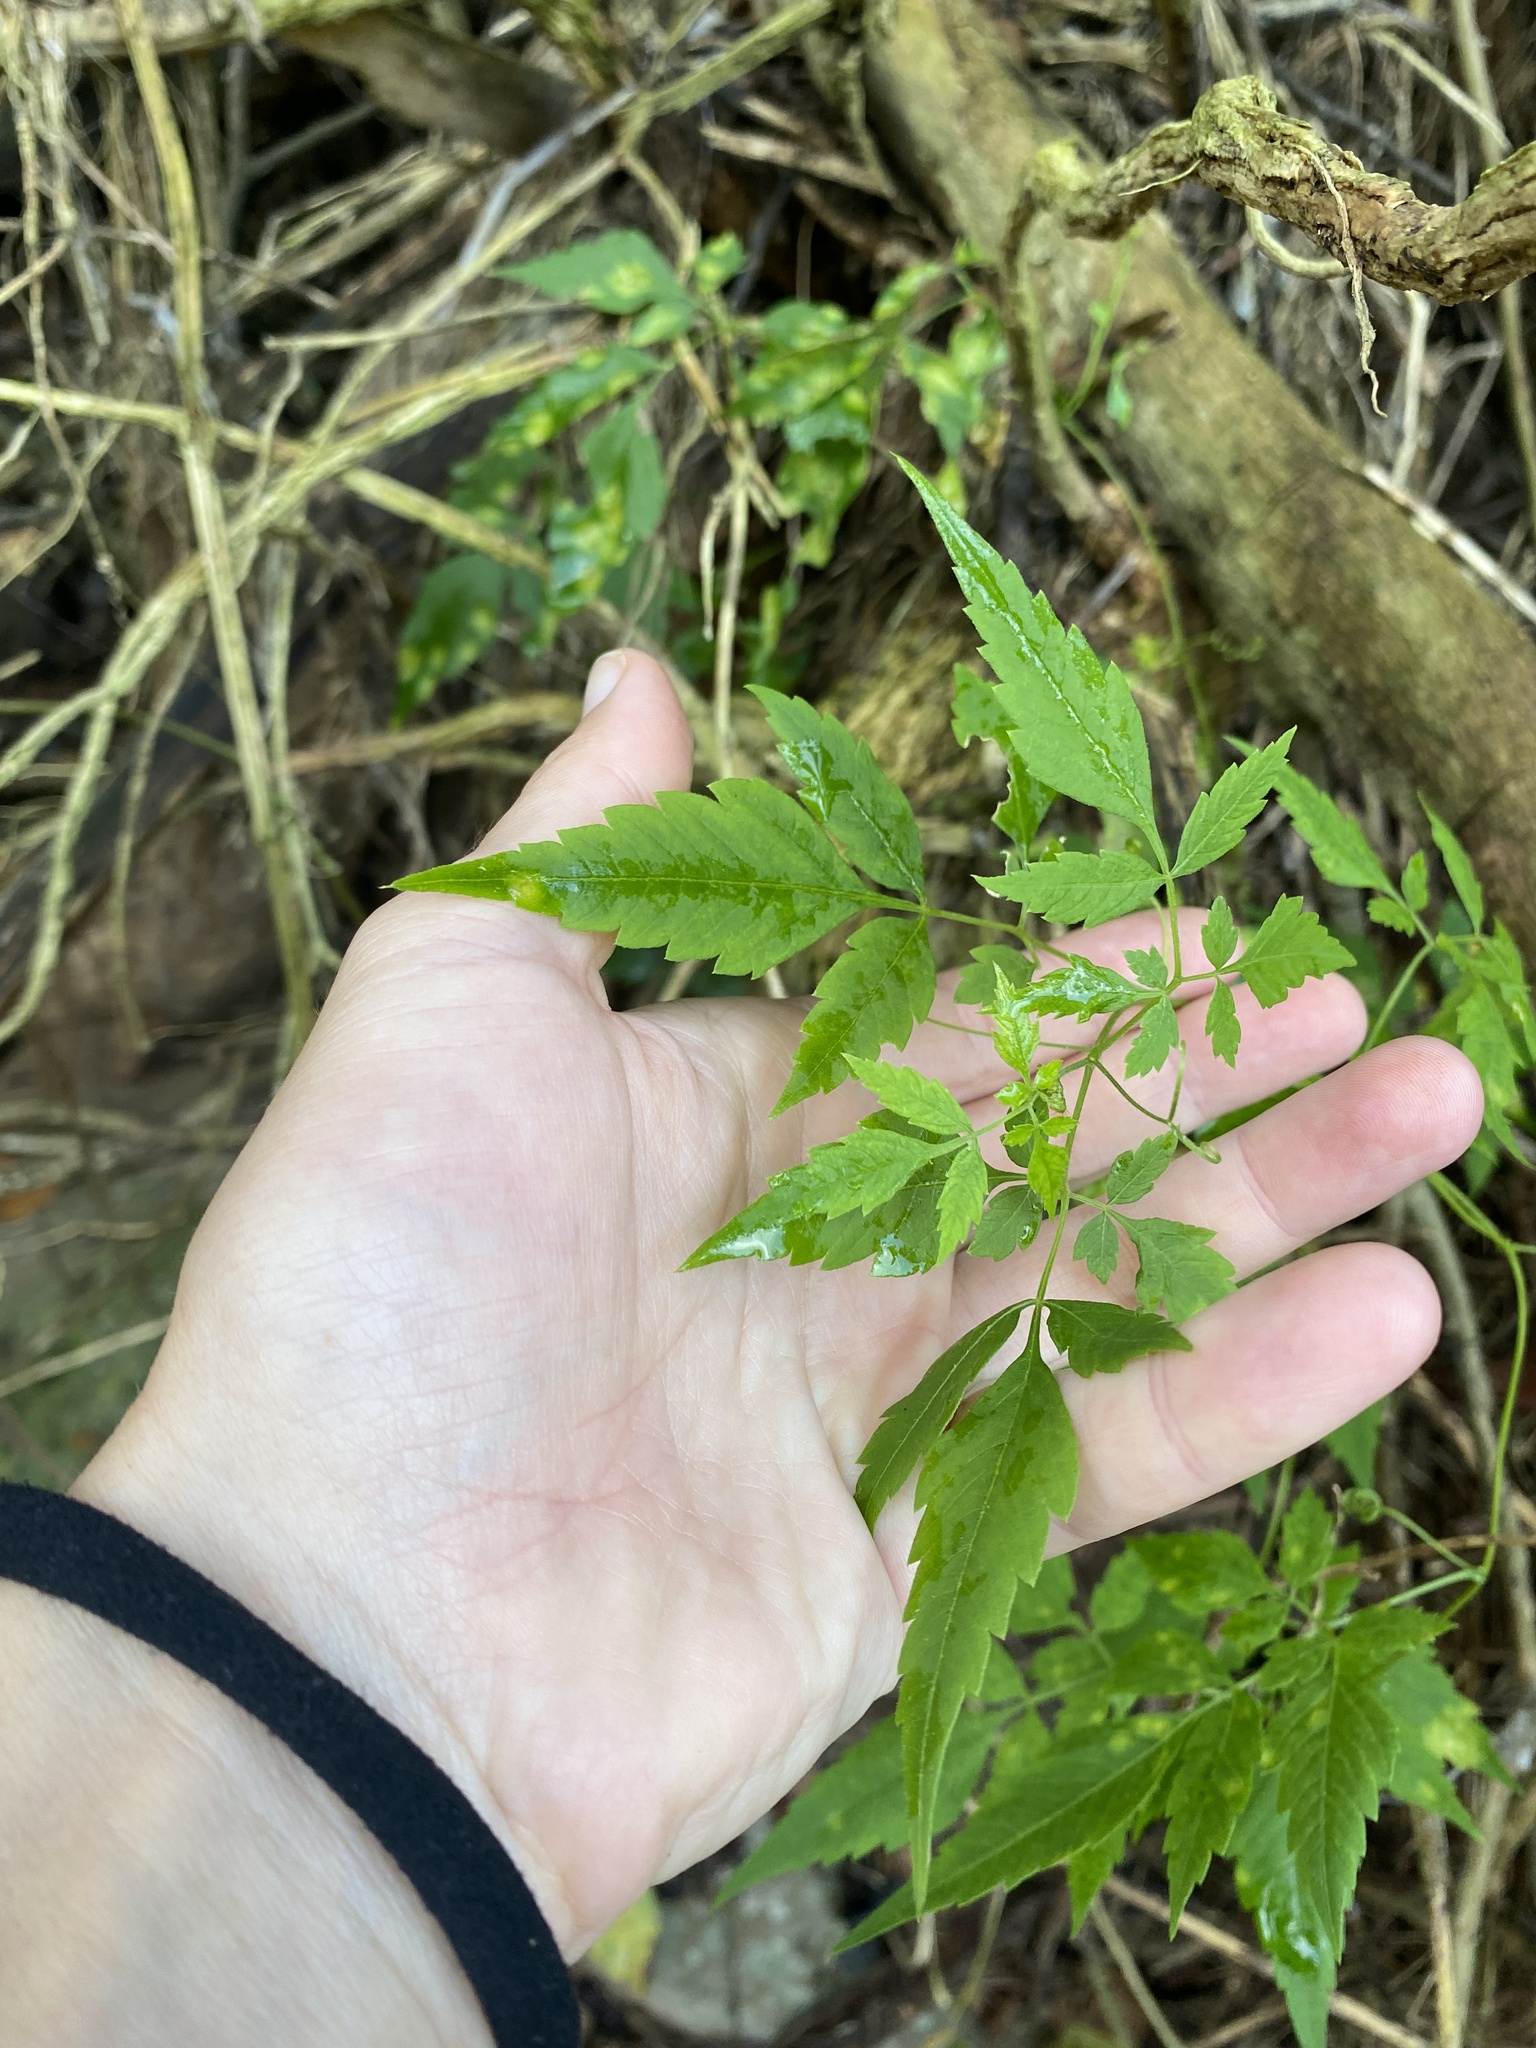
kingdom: Plantae
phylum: Tracheophyta
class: Magnoliopsida
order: Sapindales
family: Sapindaceae
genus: Cardiospermum
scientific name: Cardiospermum grandiflorum
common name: Balloon vine
